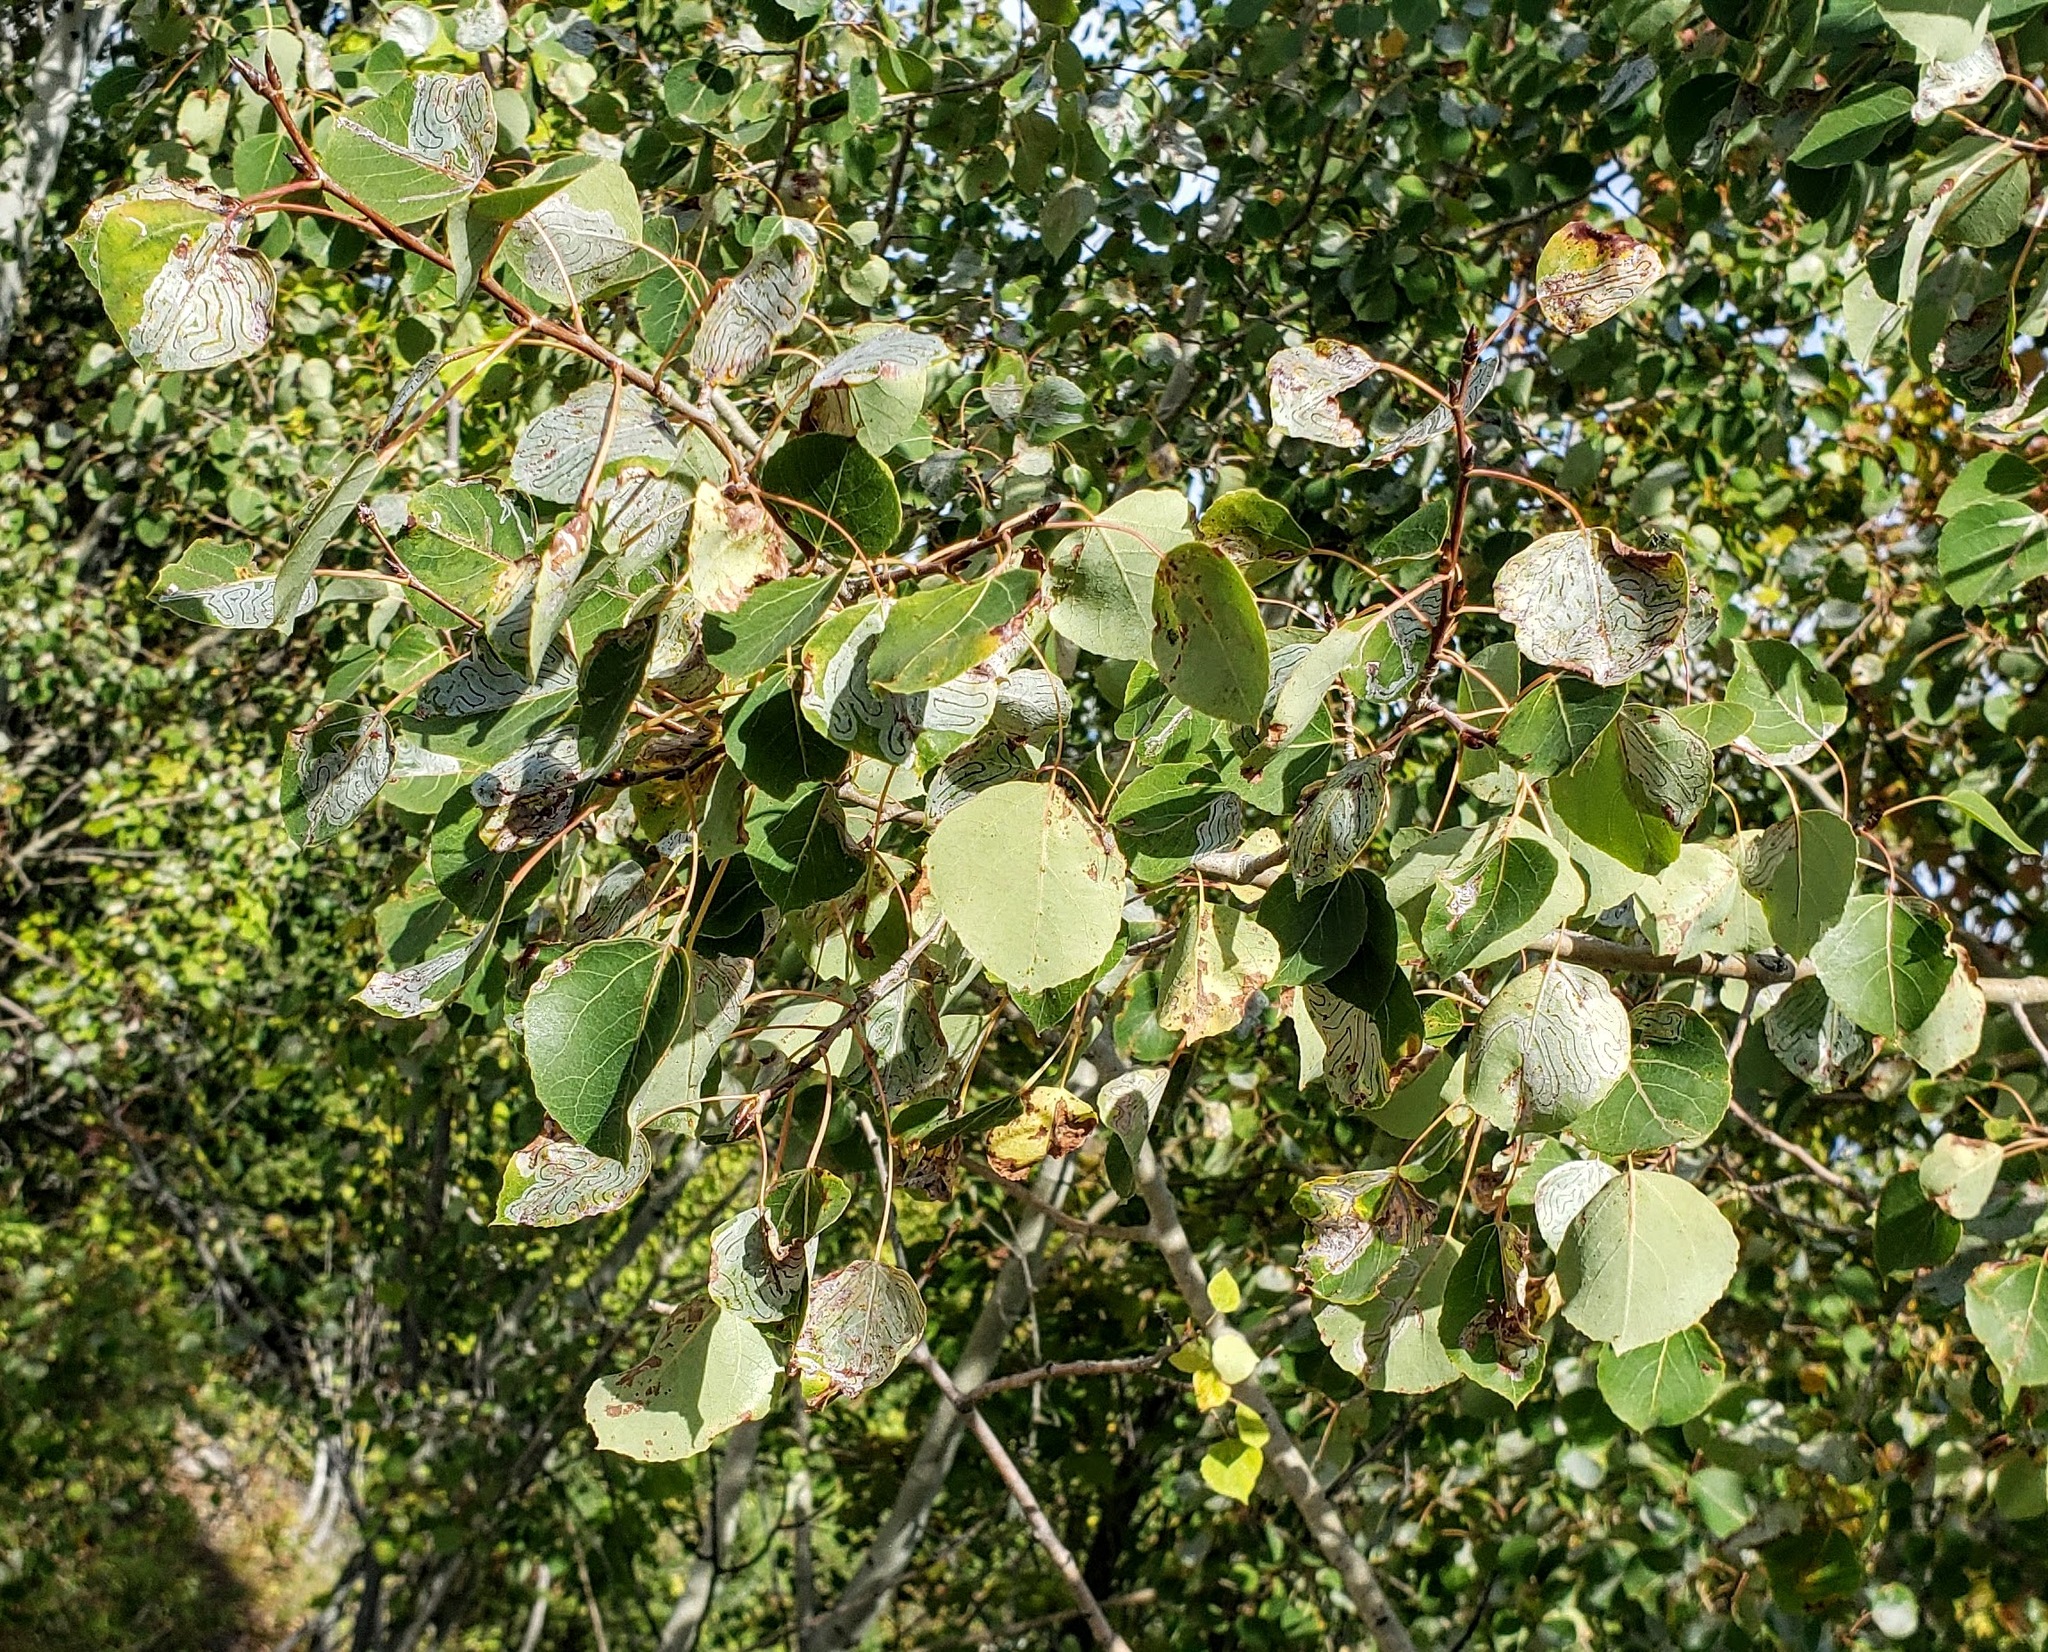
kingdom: Plantae
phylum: Tracheophyta
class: Magnoliopsida
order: Malpighiales
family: Salicaceae
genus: Populus
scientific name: Populus tremuloides
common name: Quaking aspen
